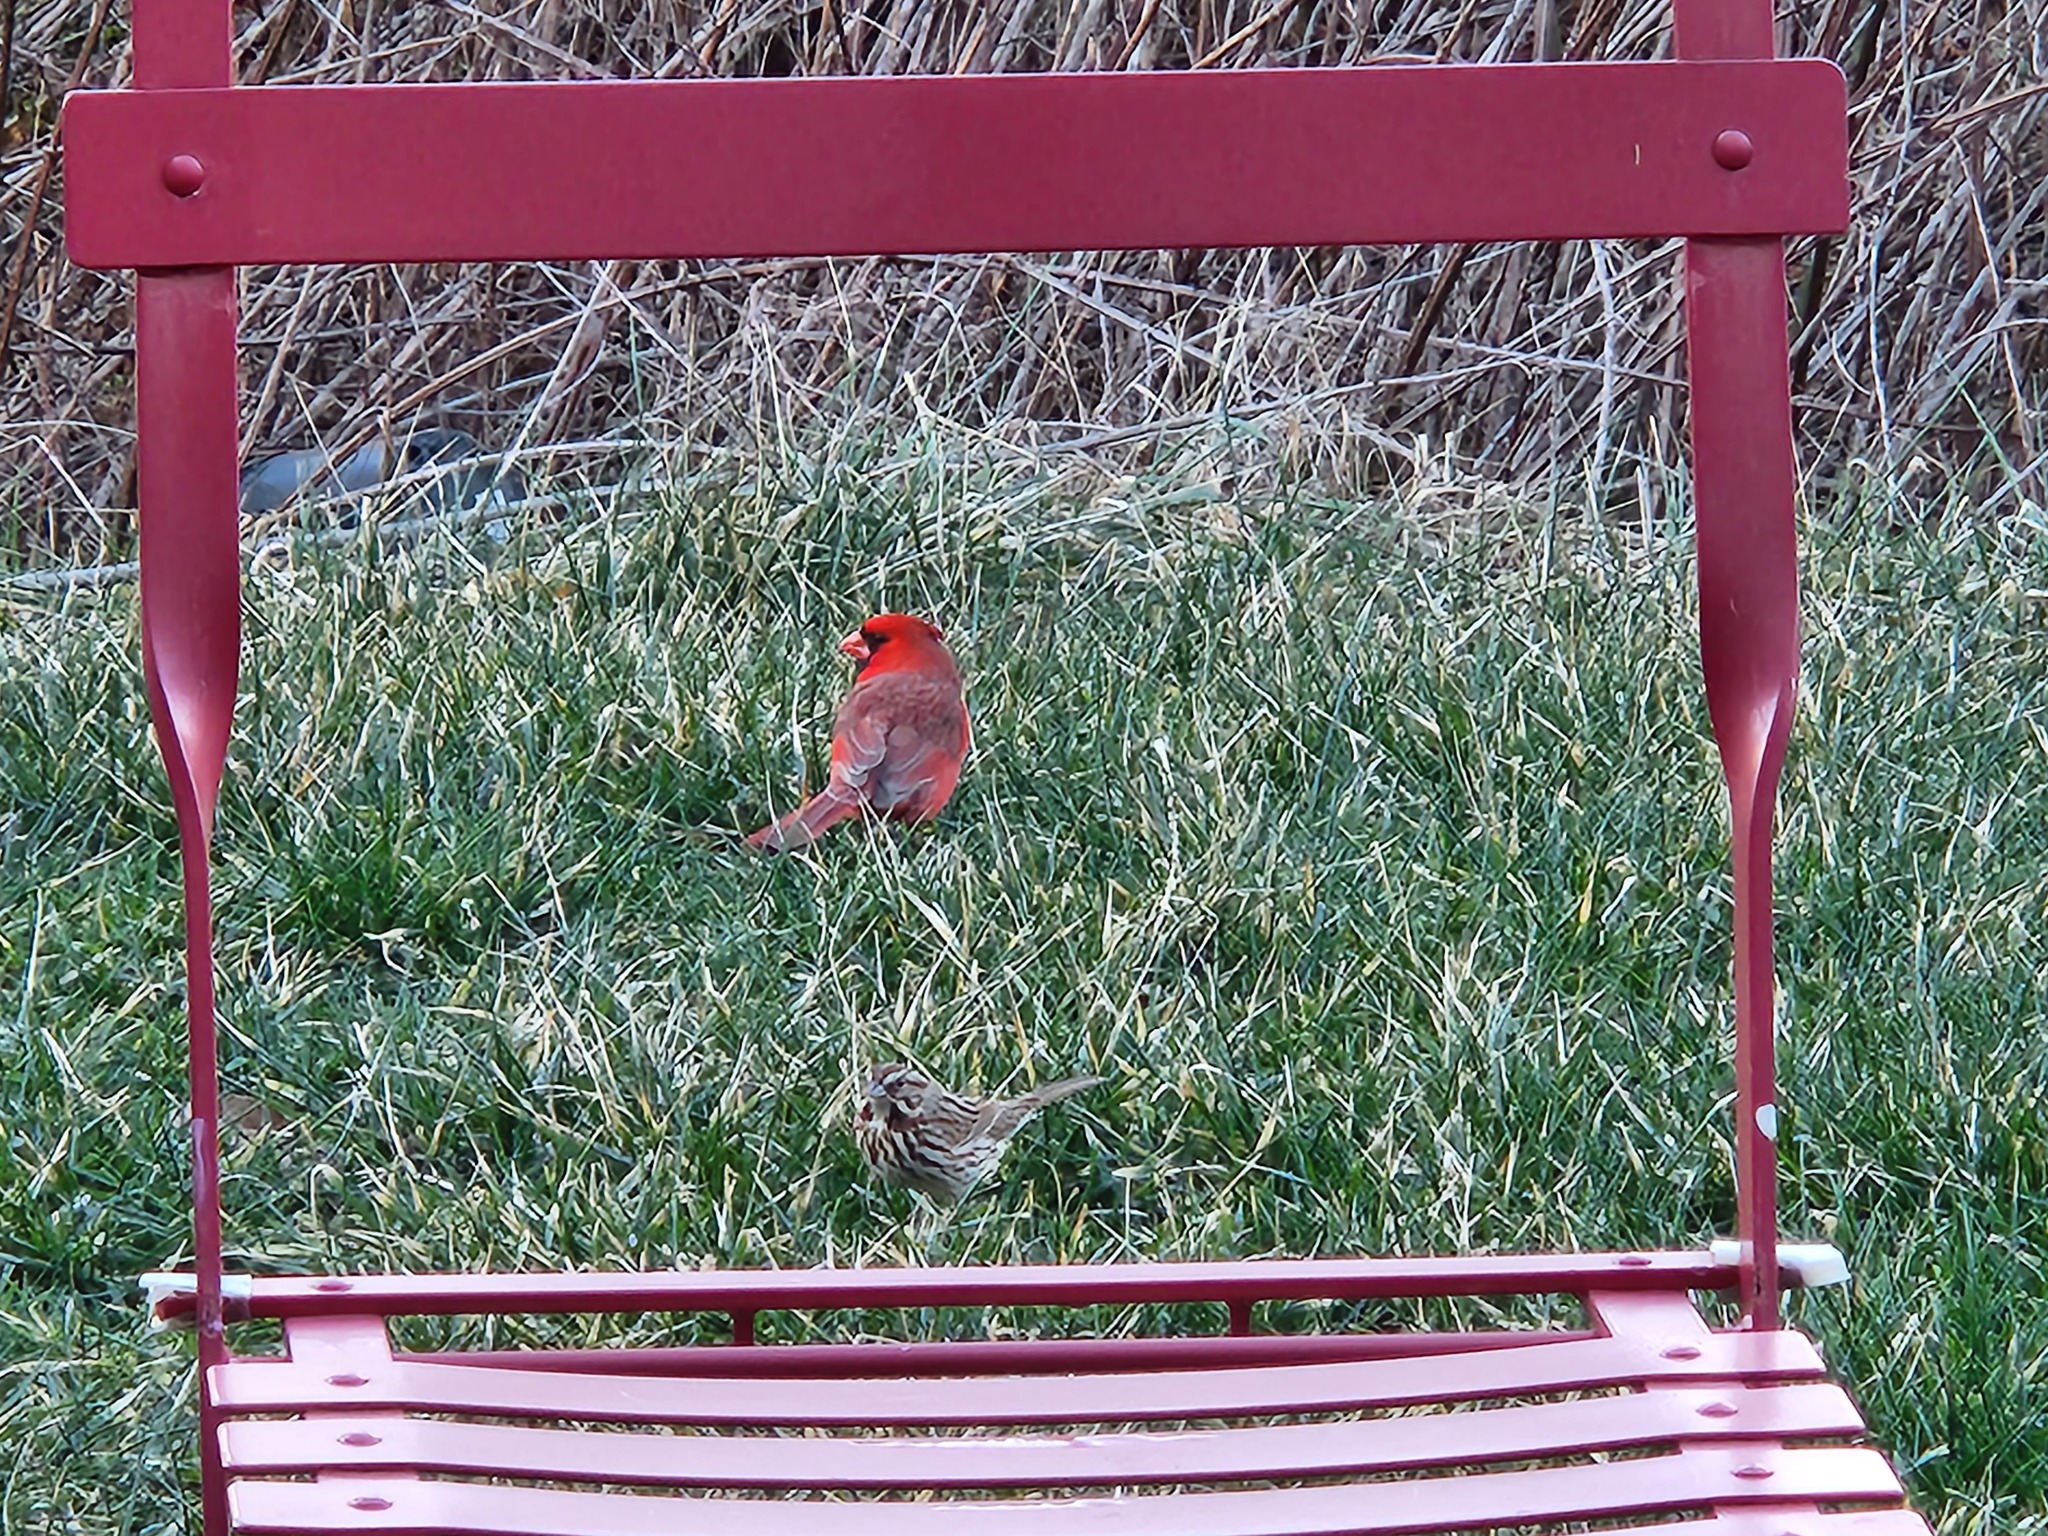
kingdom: Animalia
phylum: Chordata
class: Aves
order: Passeriformes
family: Cardinalidae
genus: Cardinalis
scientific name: Cardinalis cardinalis
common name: Northern cardinal
